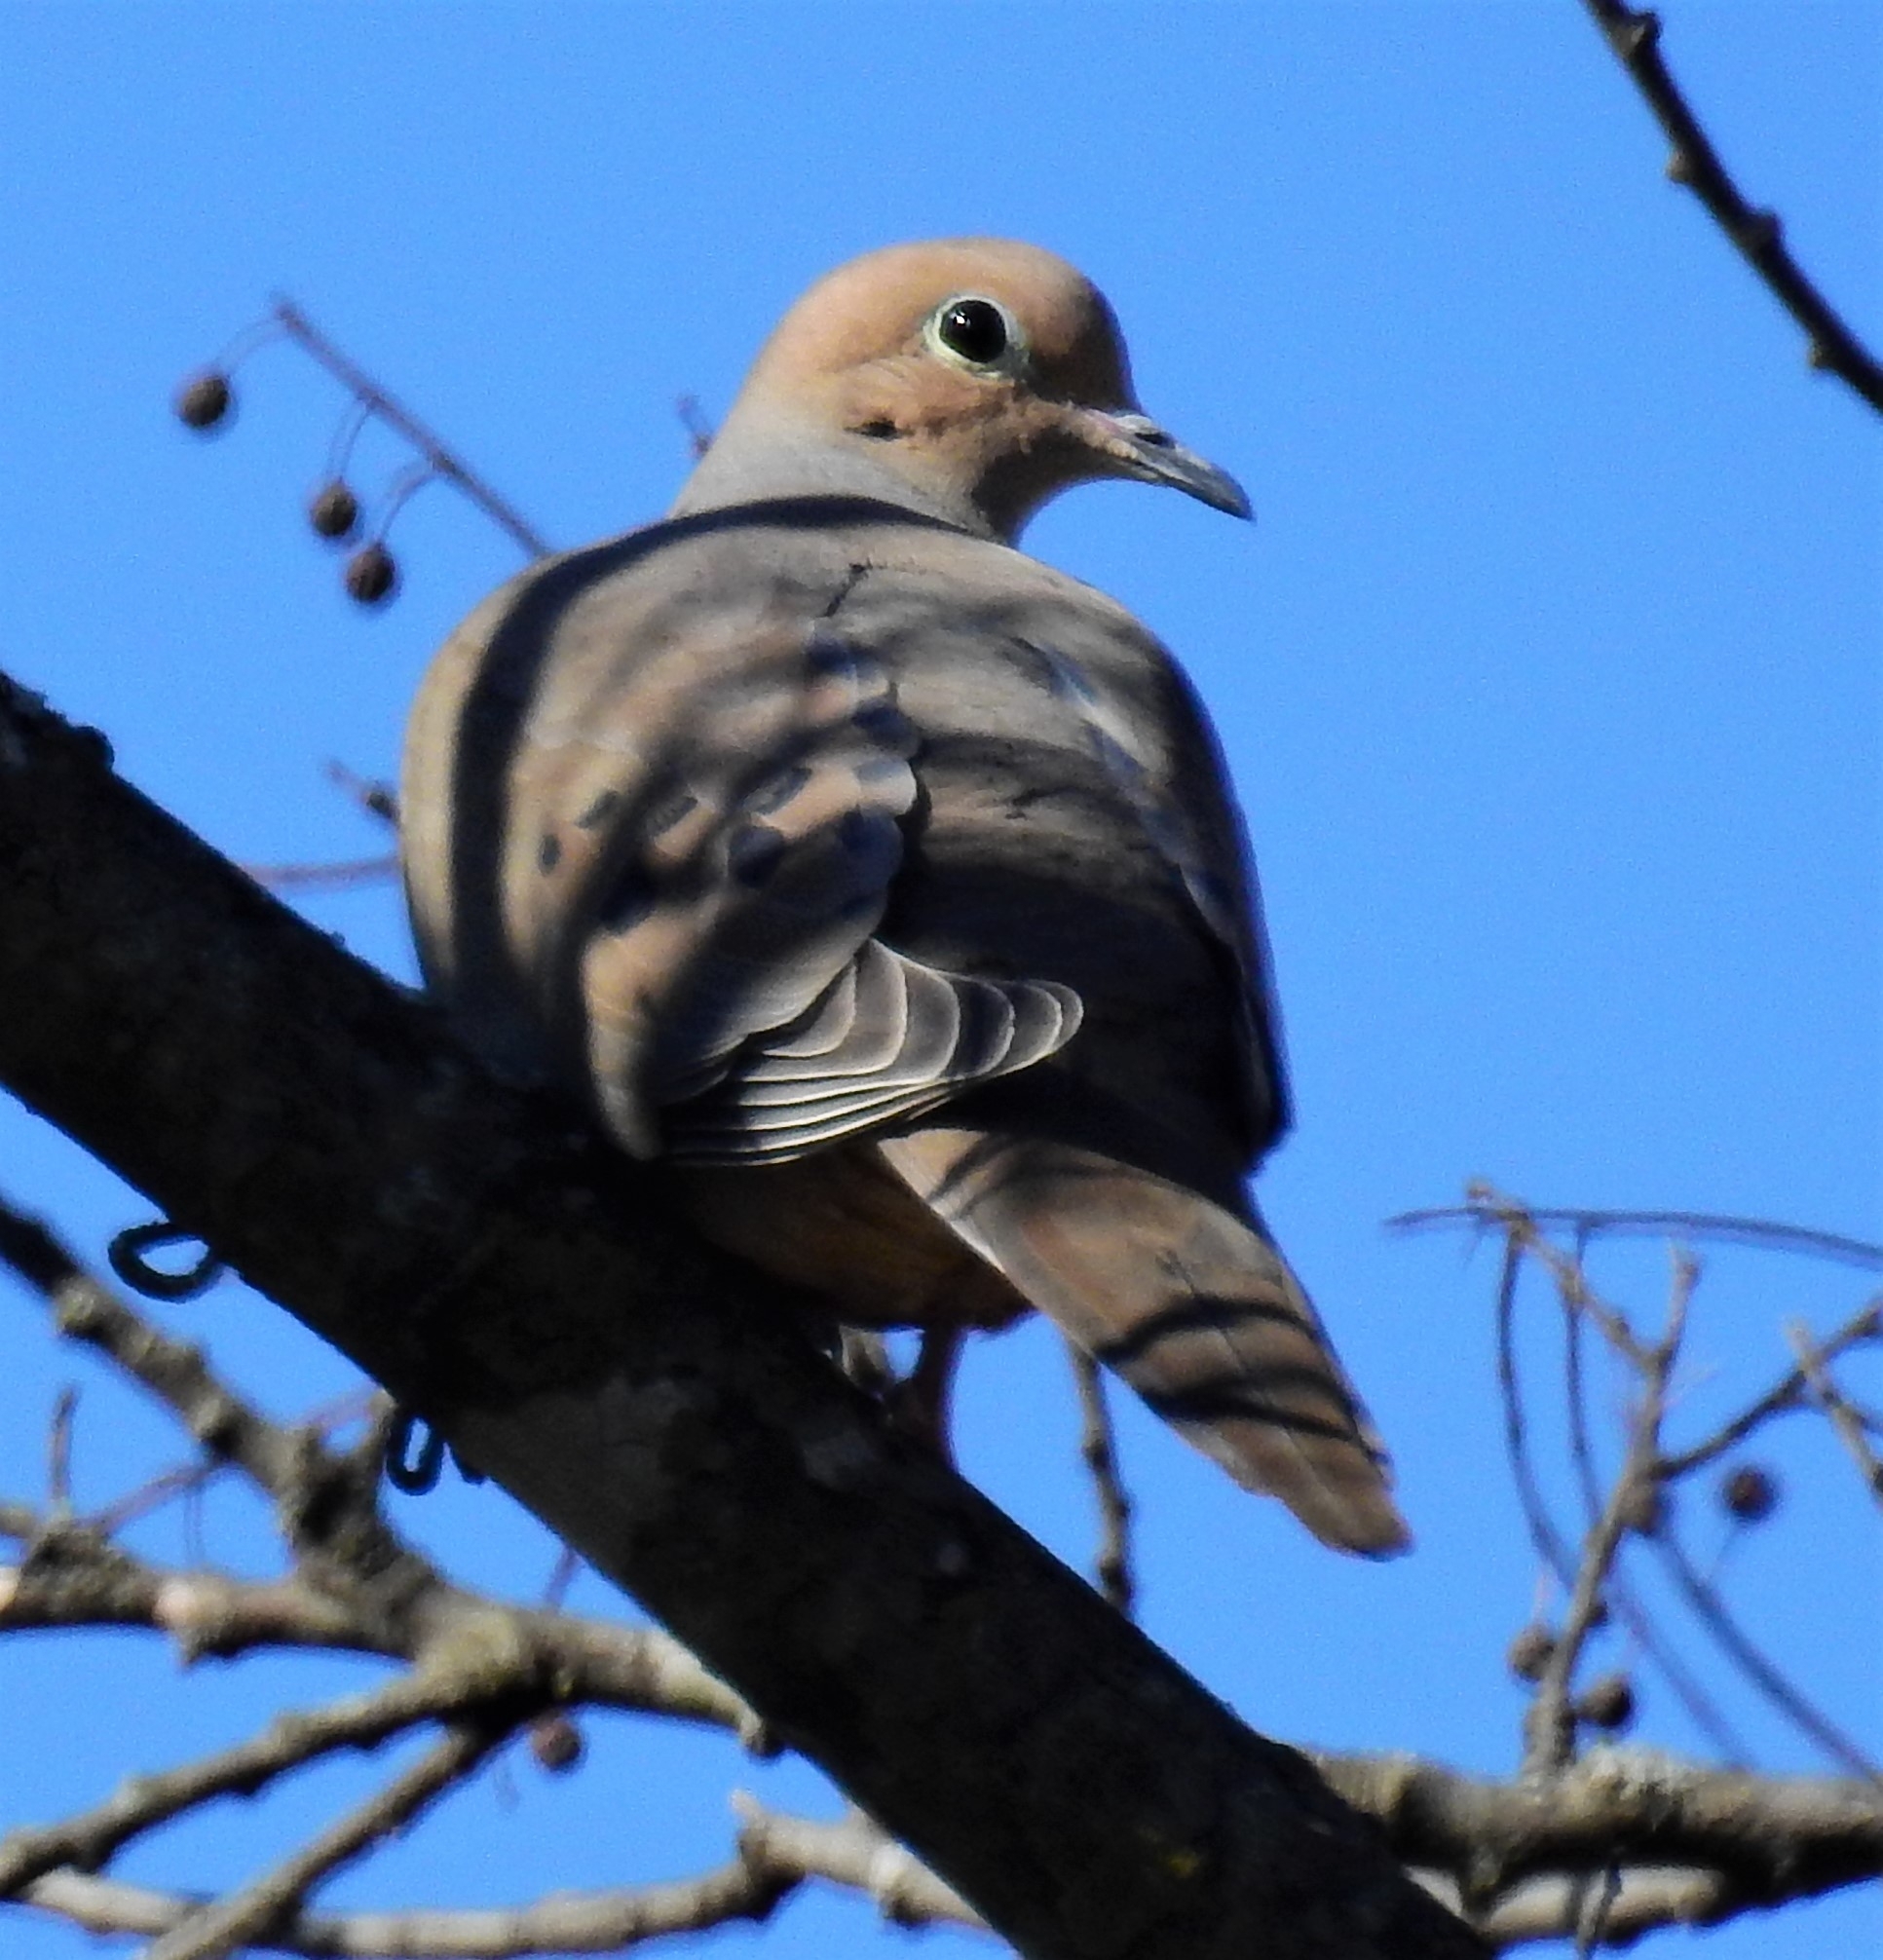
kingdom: Animalia
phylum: Chordata
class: Aves
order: Columbiformes
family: Columbidae
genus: Zenaida
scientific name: Zenaida macroura
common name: Mourning dove
